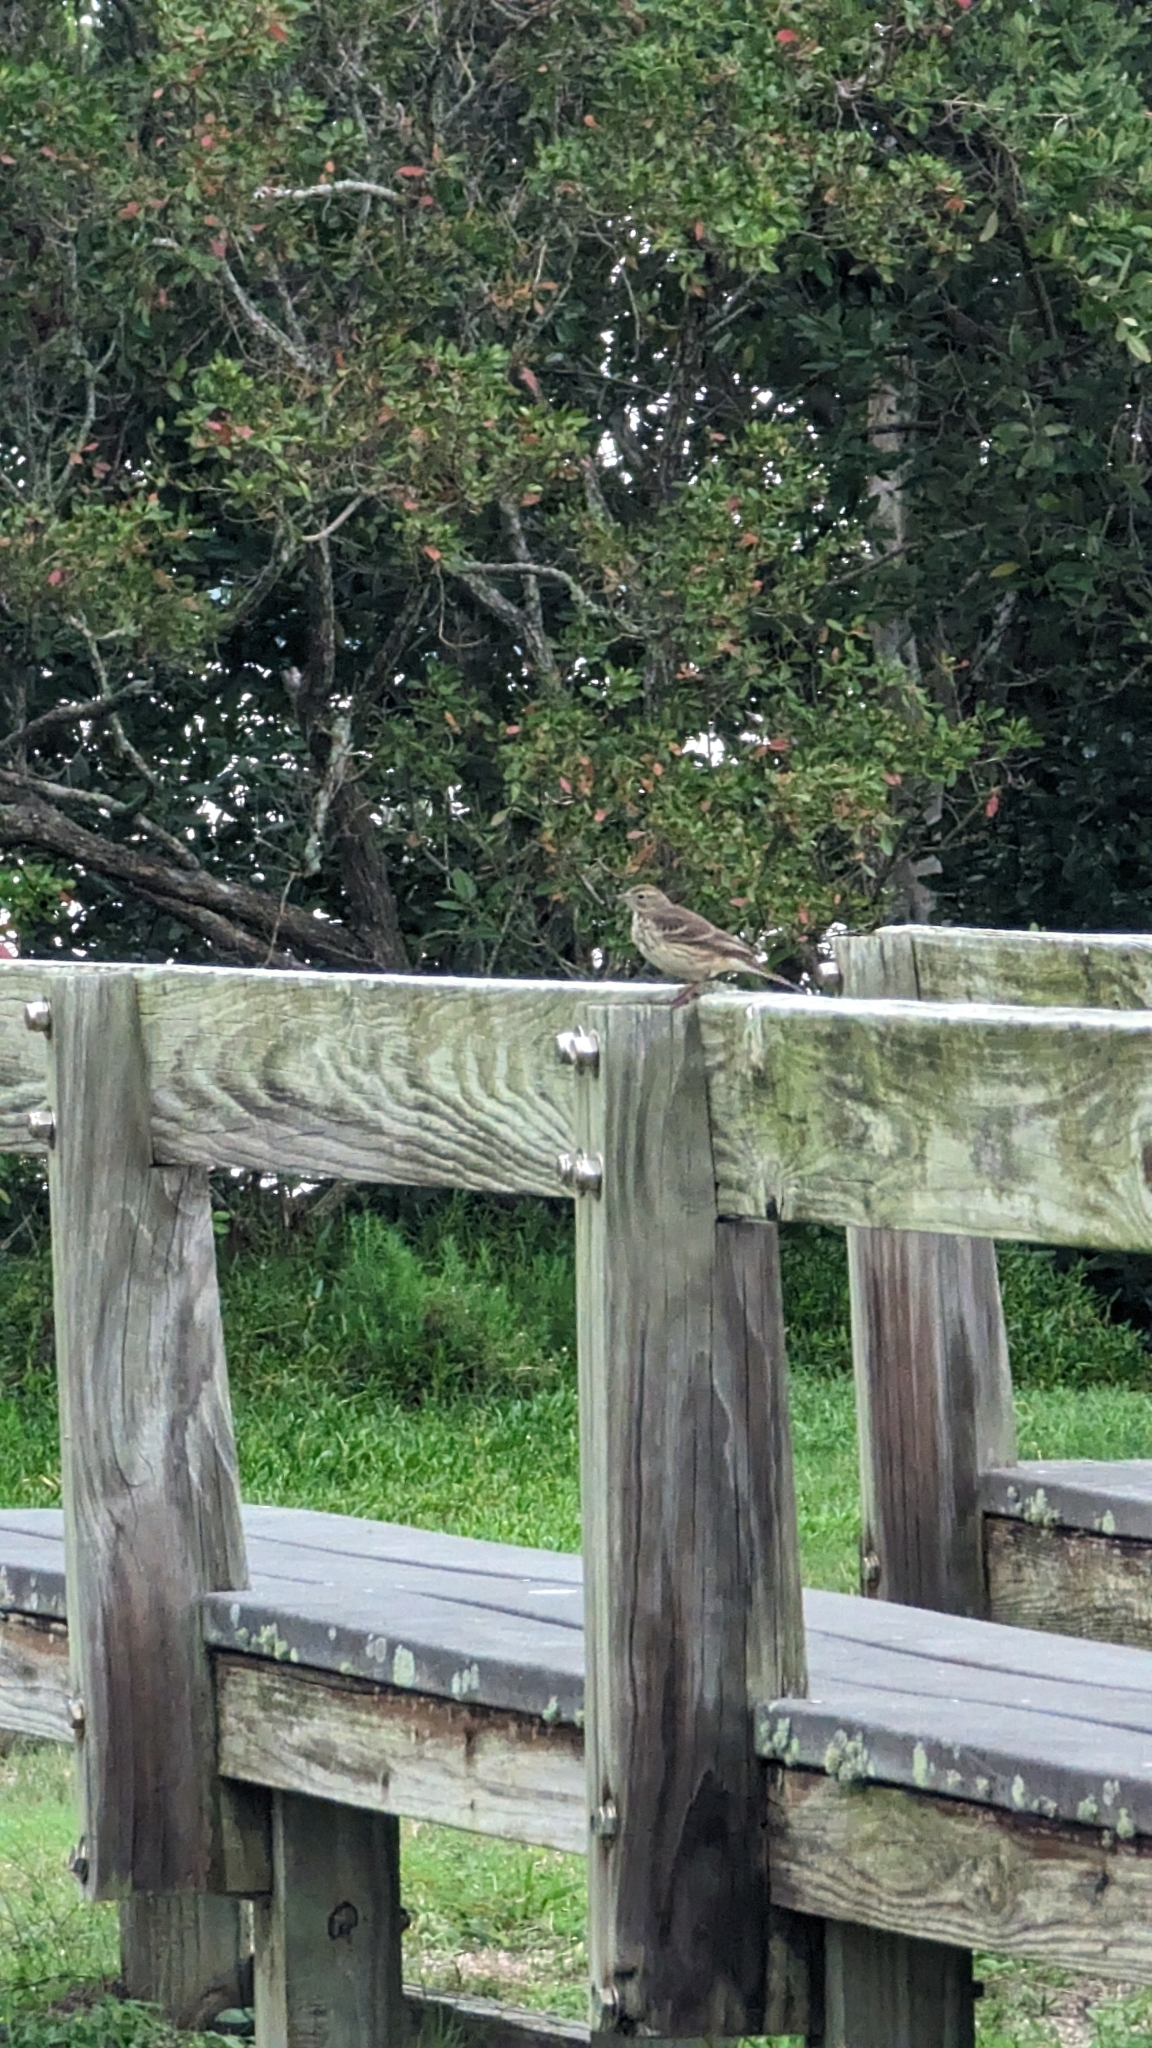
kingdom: Animalia
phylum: Chordata
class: Aves
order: Passeriformes
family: Motacillidae
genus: Anthus
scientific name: Anthus rubescens
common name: Buff-bellied pipit
